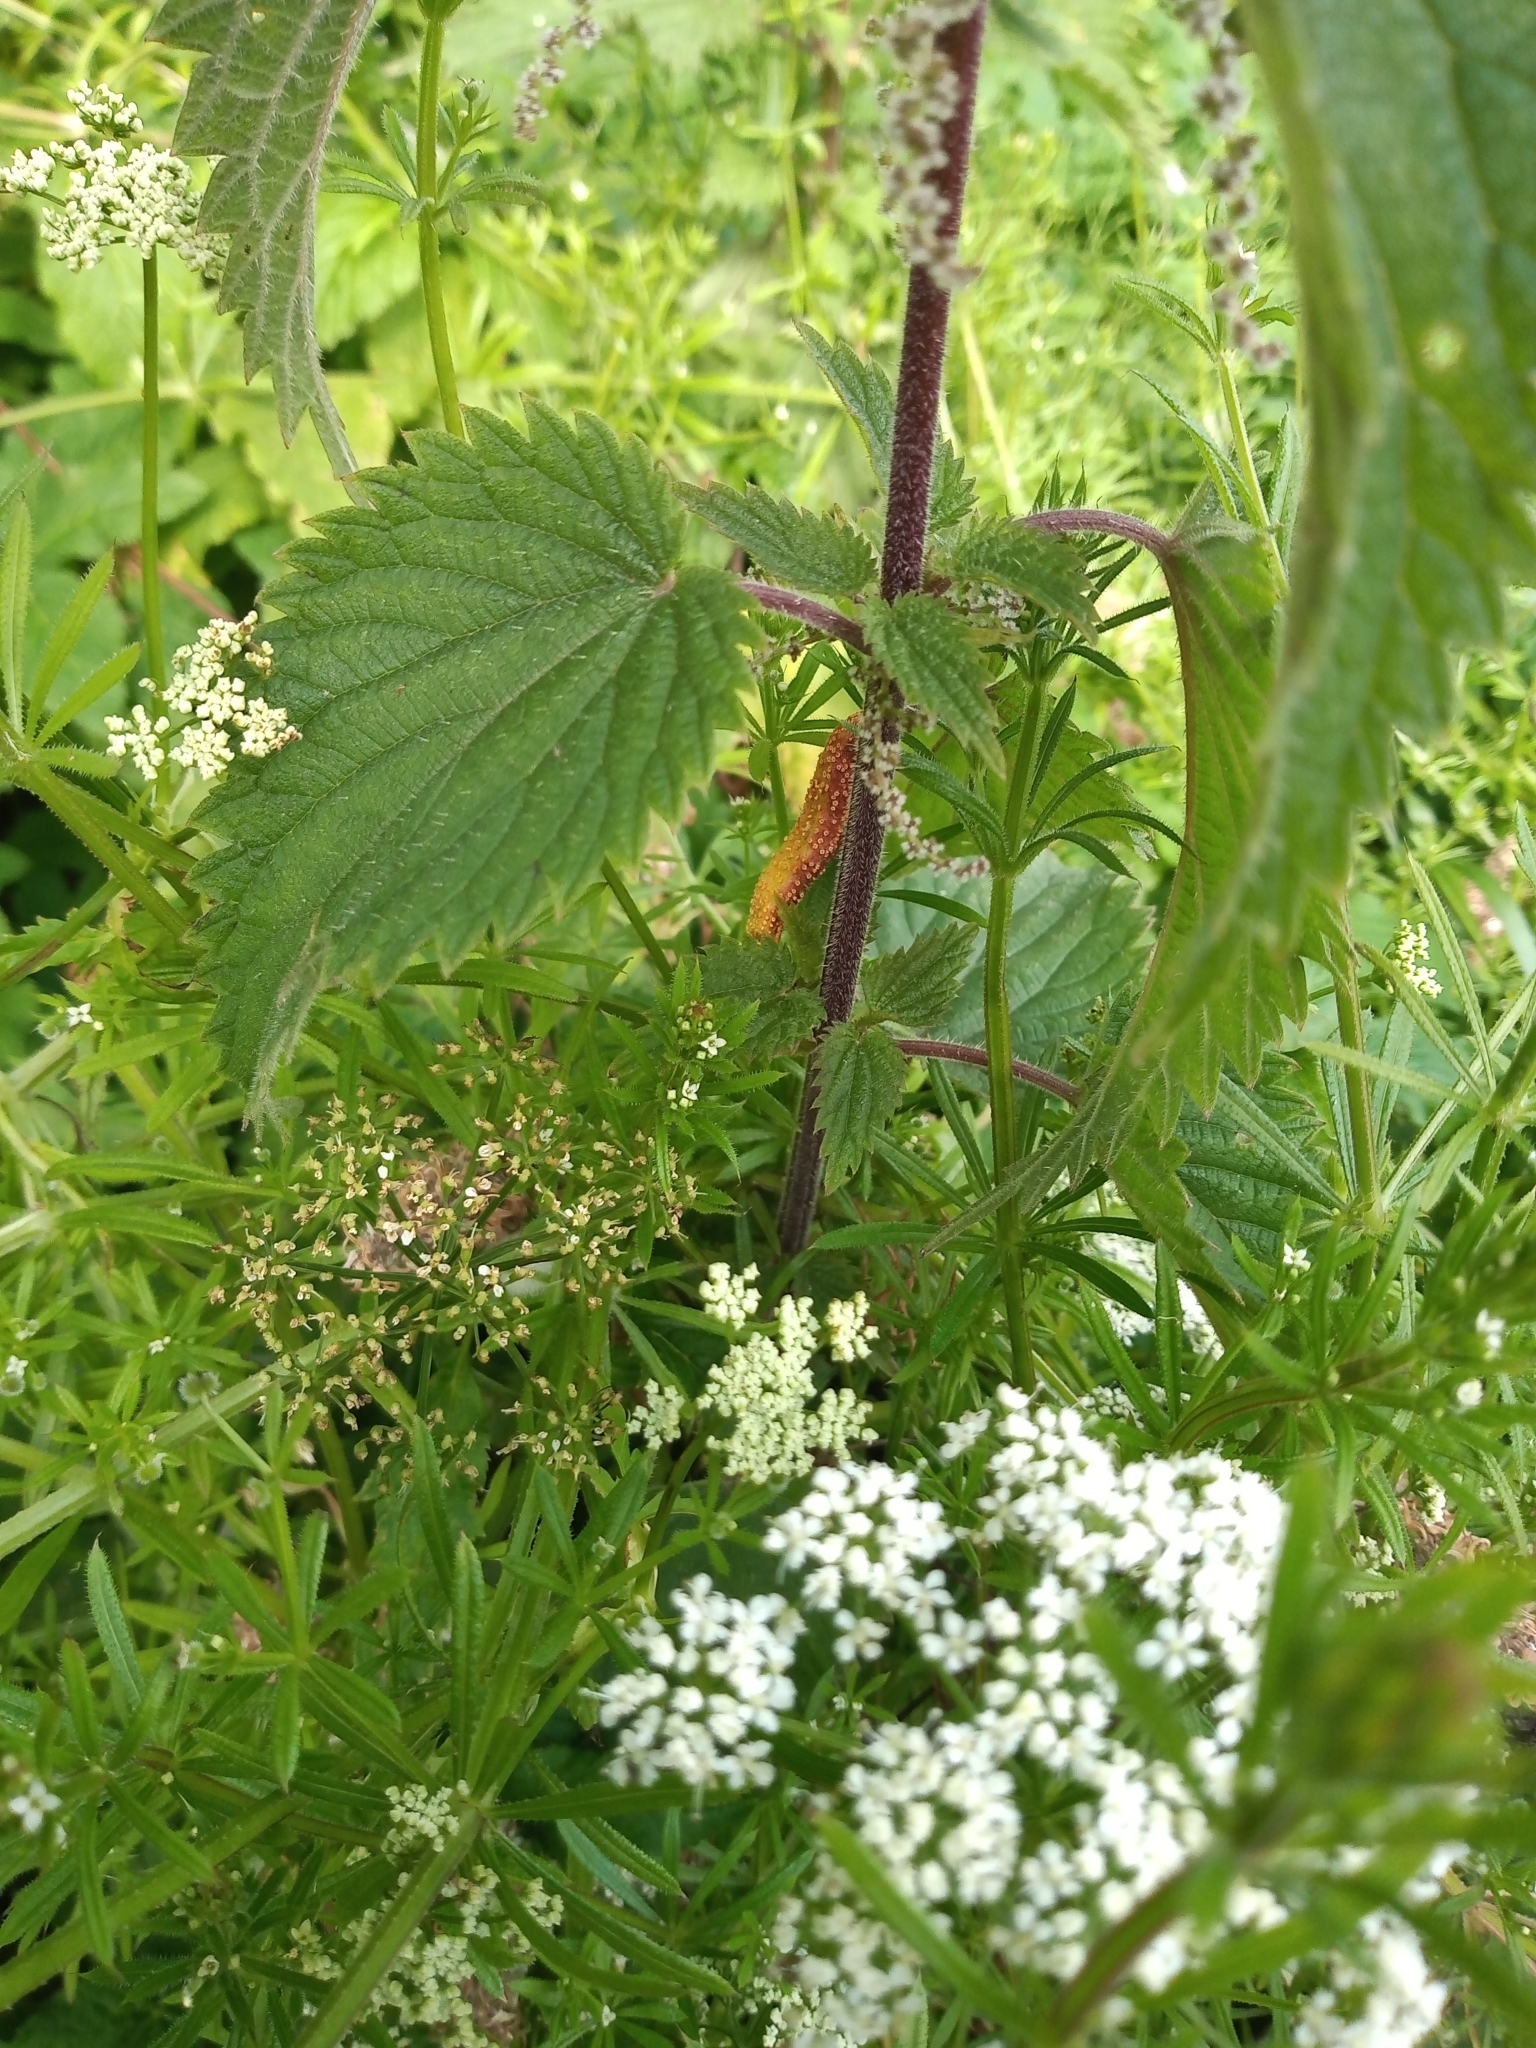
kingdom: Fungi
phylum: Basidiomycota
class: Pucciniomycetes
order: Pucciniales
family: Pucciniaceae
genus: Puccinia
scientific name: Puccinia urticata
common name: Nettle clustercup rust fungus
